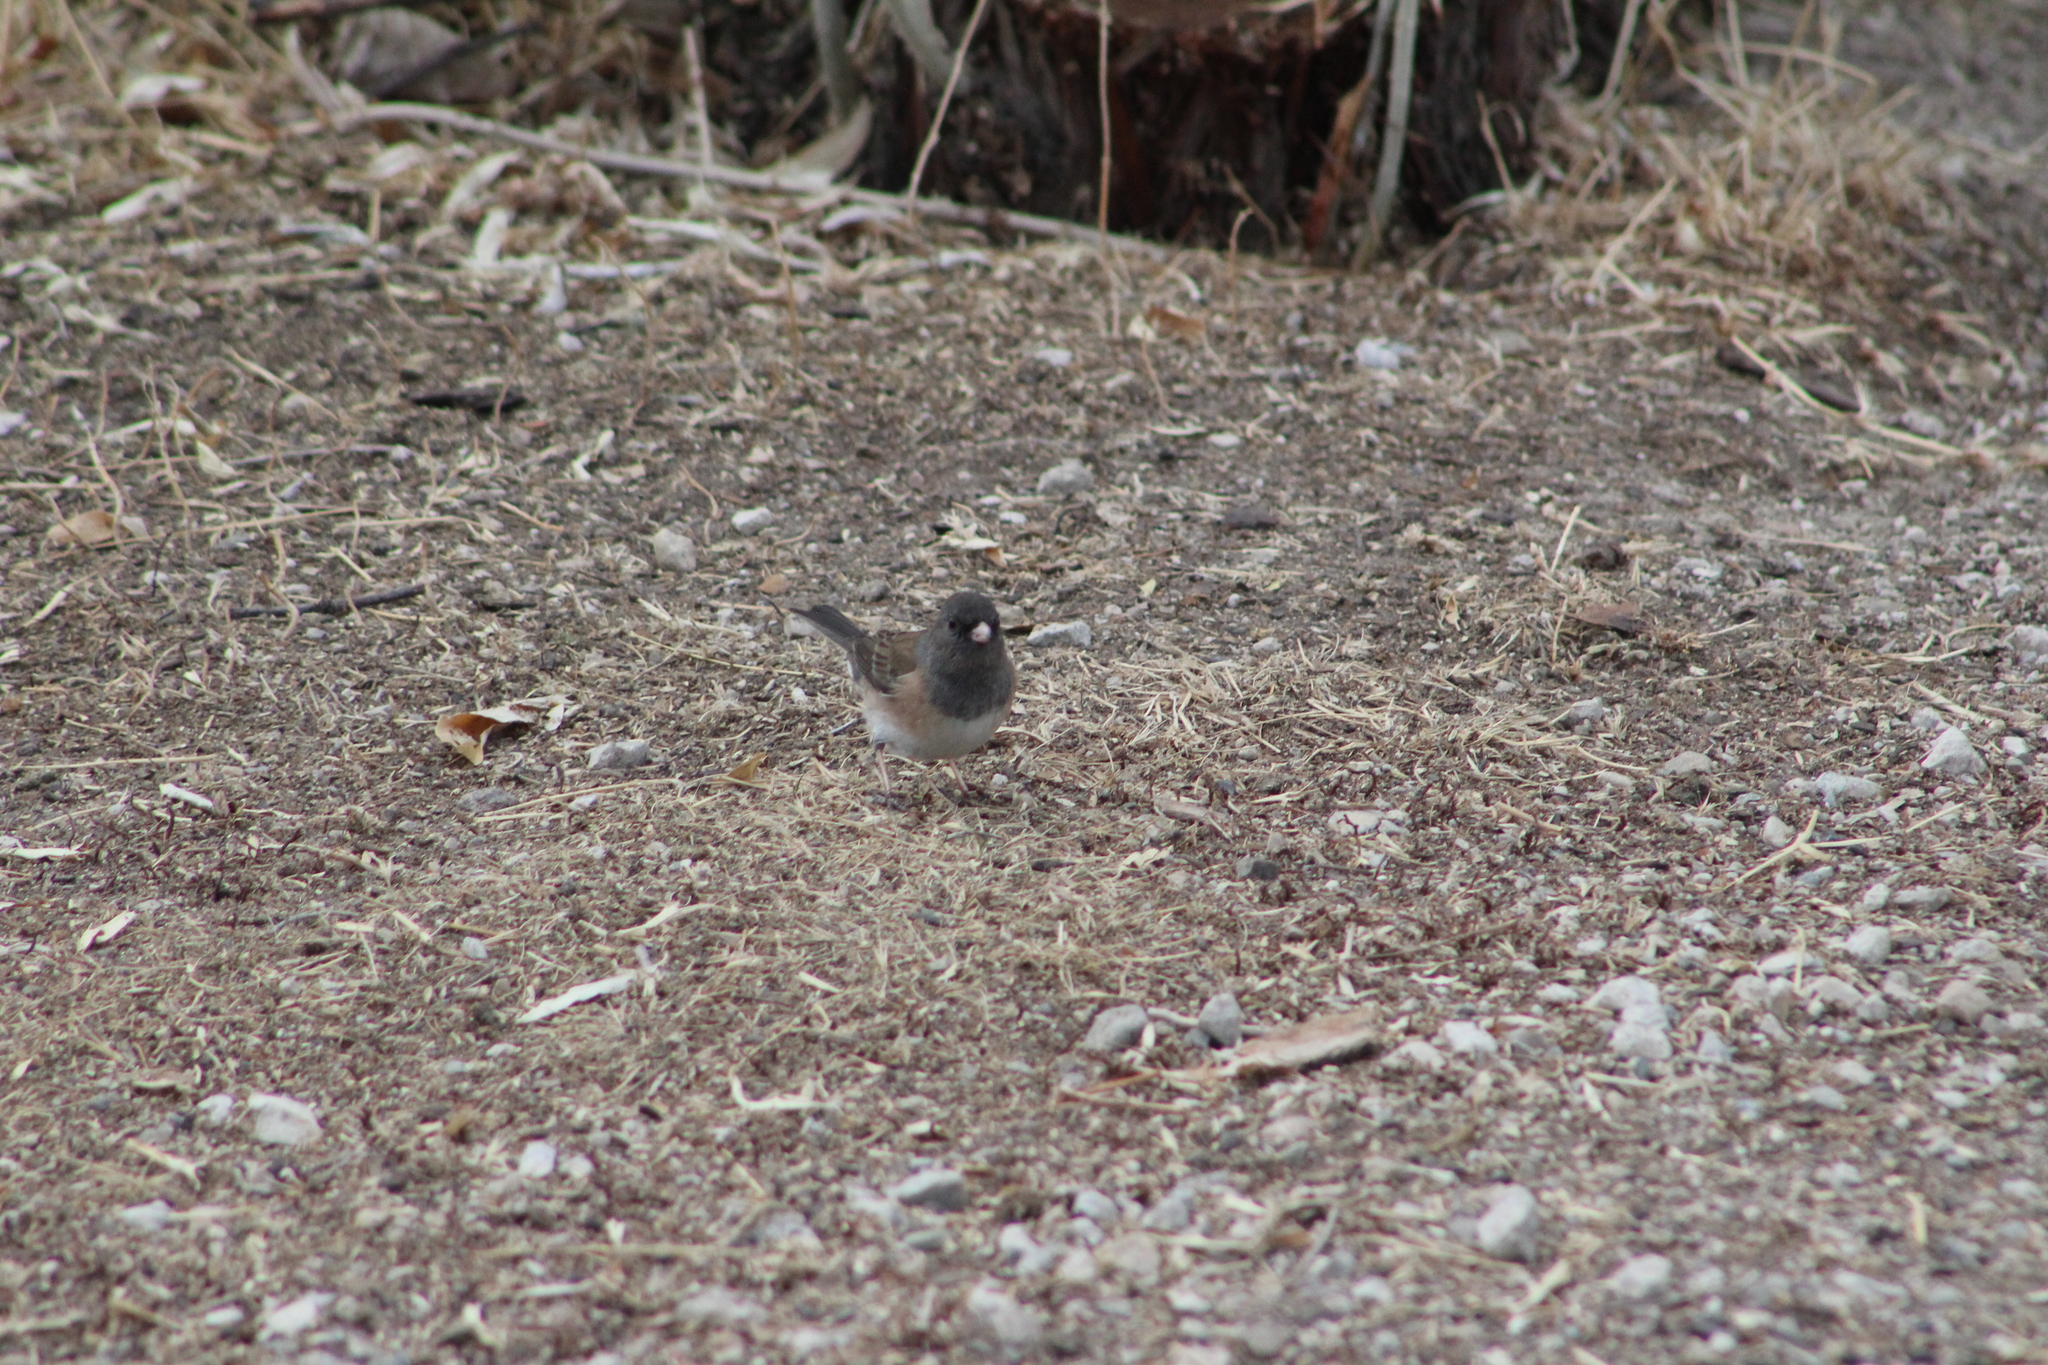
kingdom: Animalia
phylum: Chordata
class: Aves
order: Passeriformes
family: Passerellidae
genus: Junco
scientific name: Junco hyemalis
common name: Dark-eyed junco
